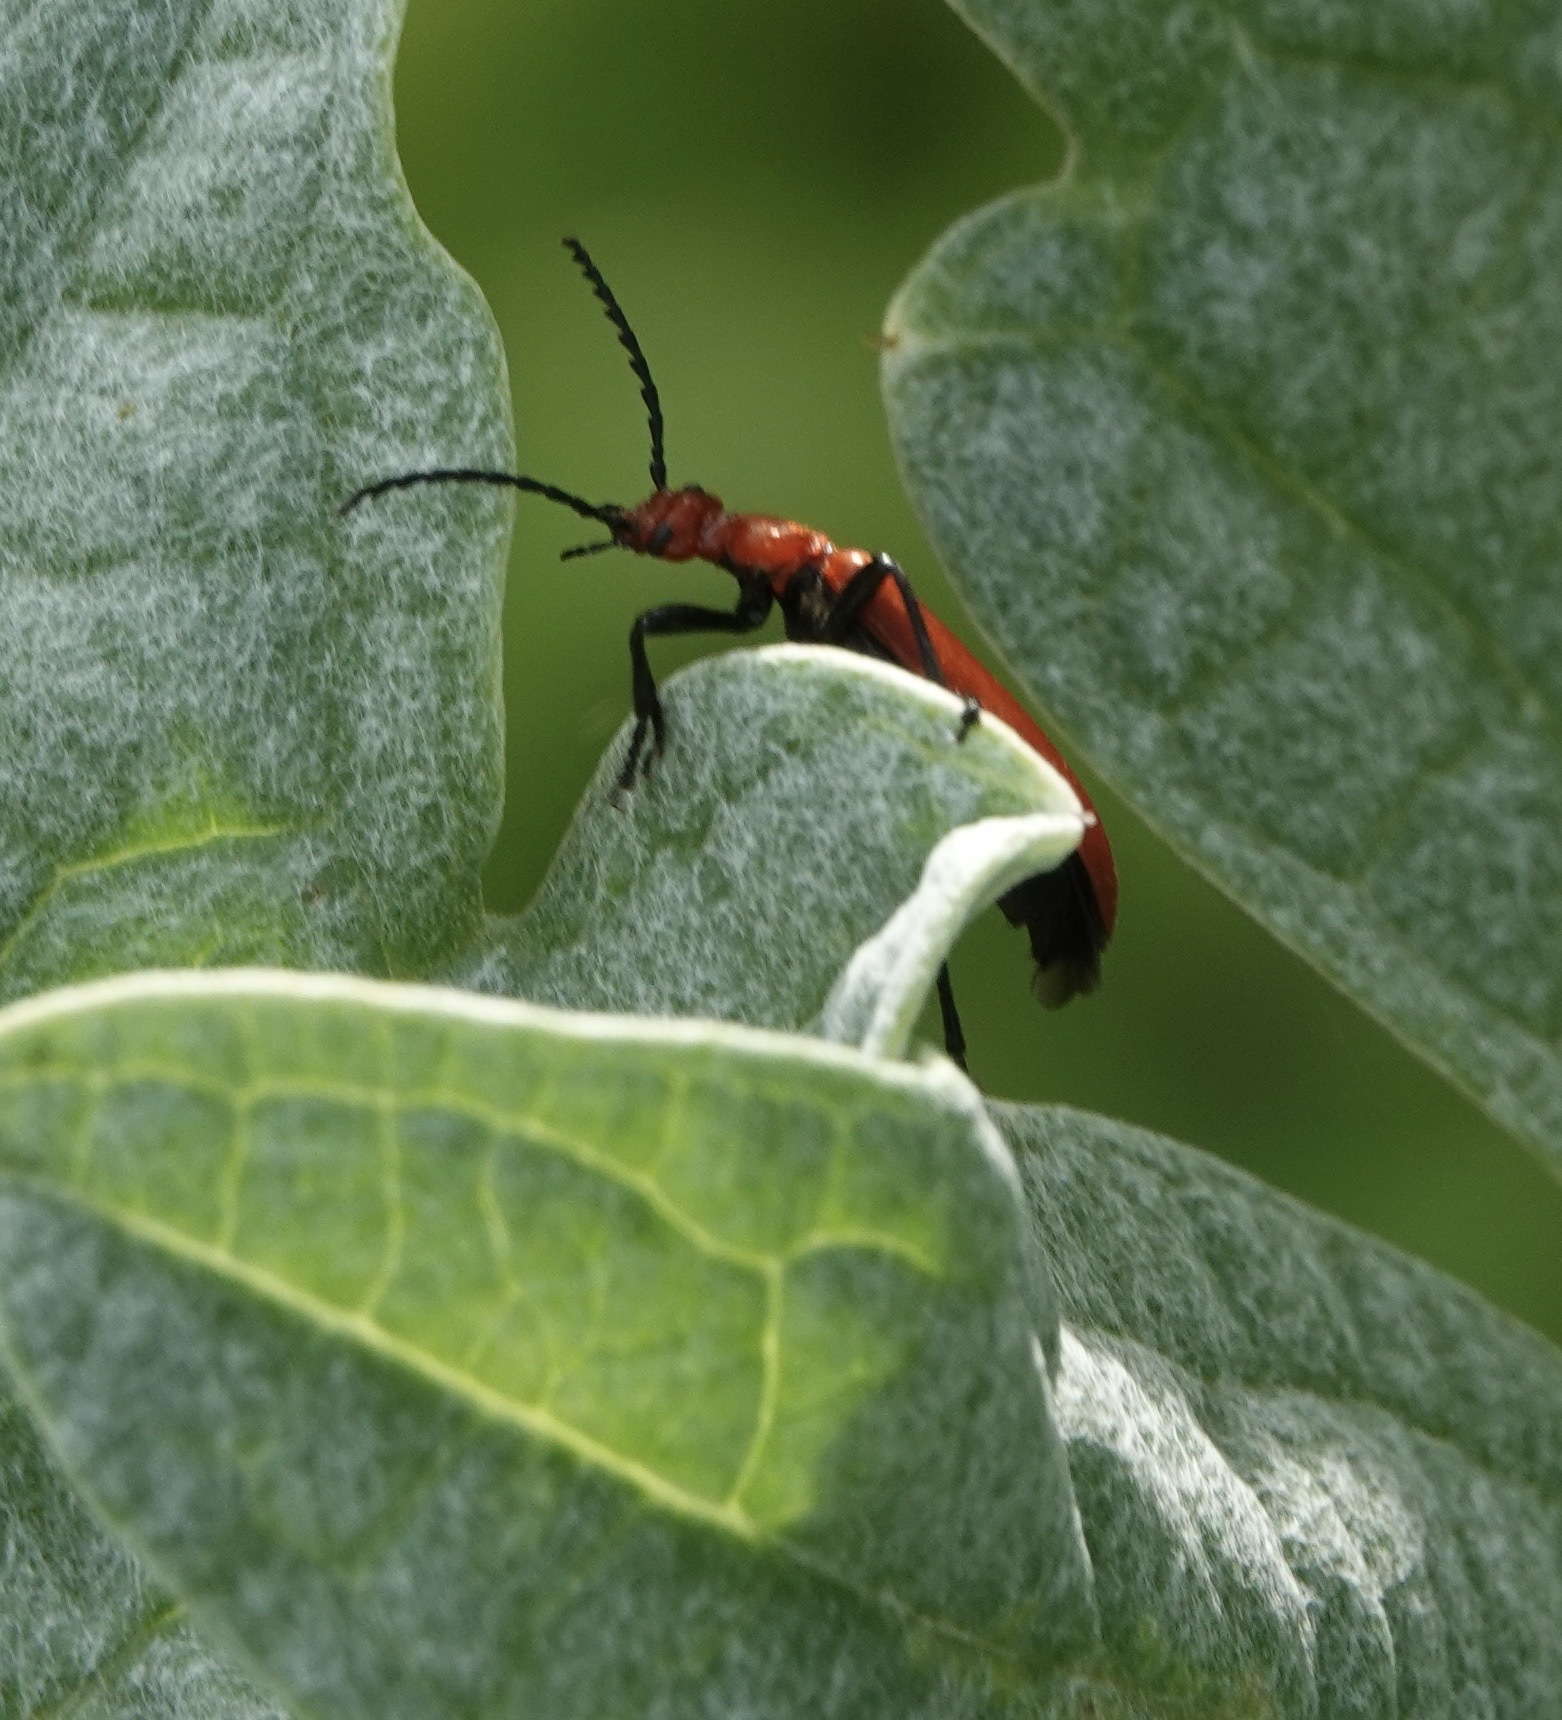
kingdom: Animalia
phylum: Arthropoda
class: Insecta
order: Coleoptera
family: Pyrochroidae
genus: Pyrochroa
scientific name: Pyrochroa serraticornis
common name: Red-headed cardinal beetle
